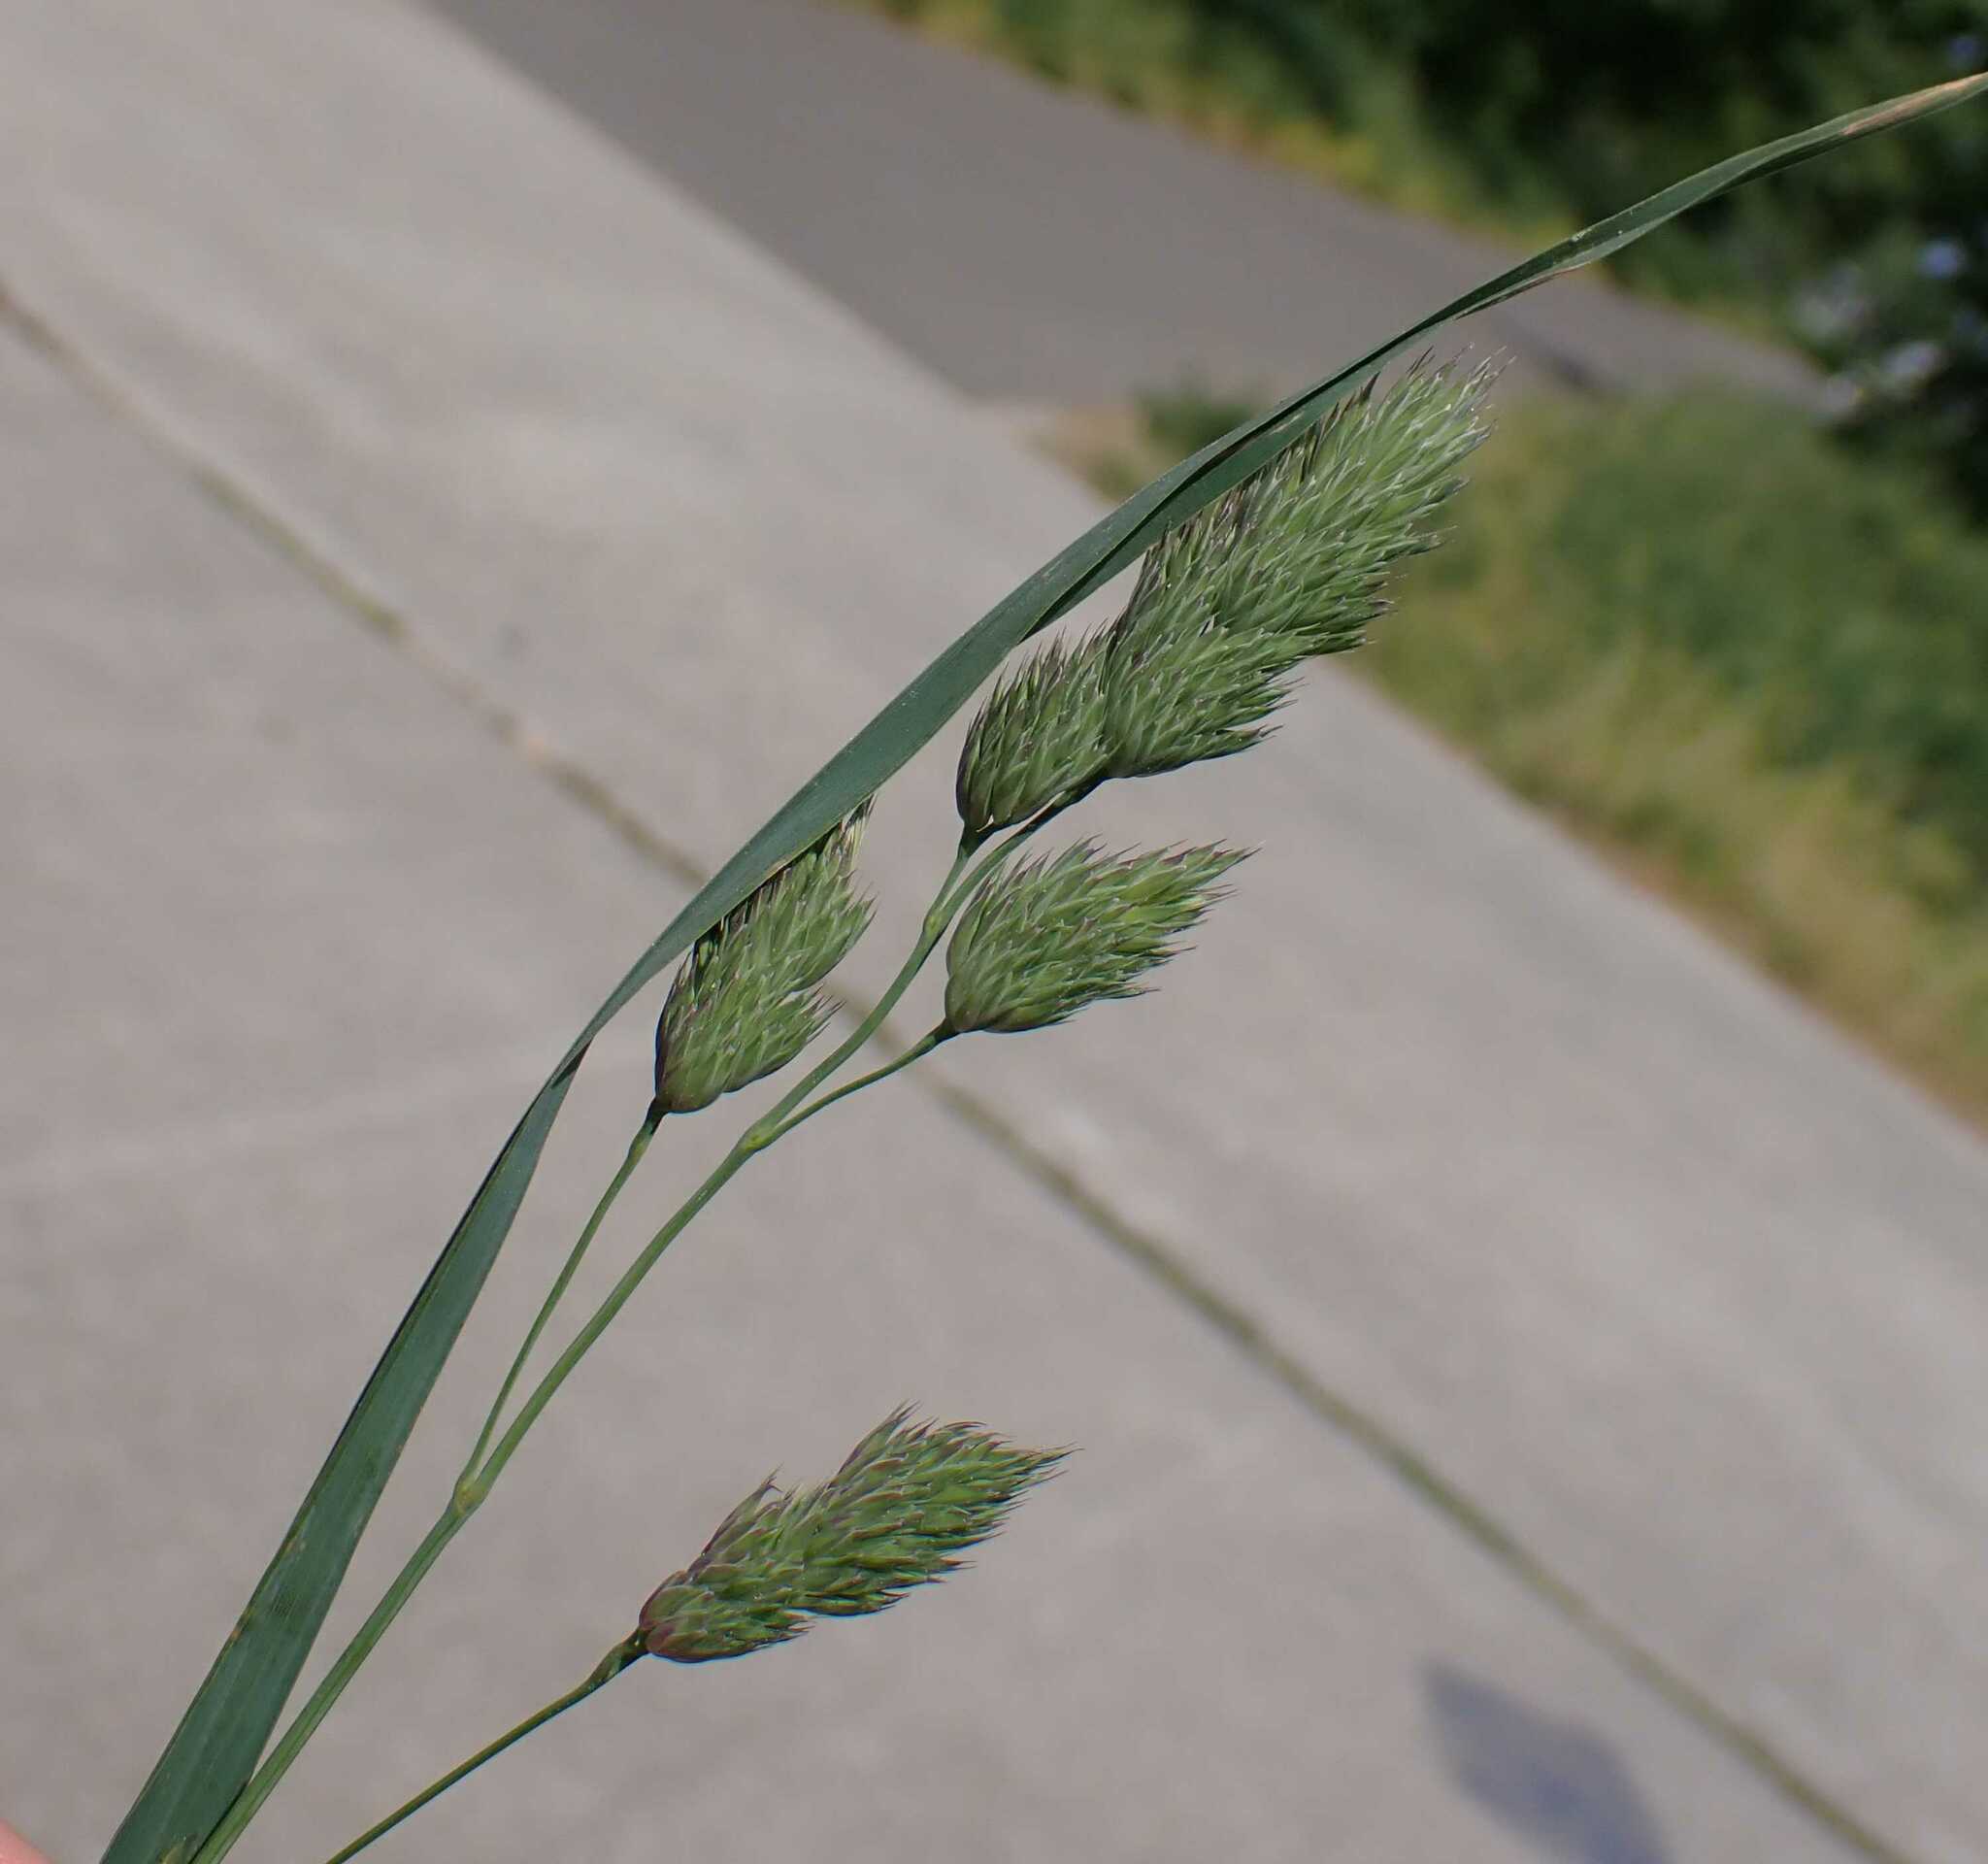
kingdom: Plantae
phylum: Tracheophyta
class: Liliopsida
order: Poales
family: Poaceae
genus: Dactylis
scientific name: Dactylis glomerata
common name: Orchardgrass
